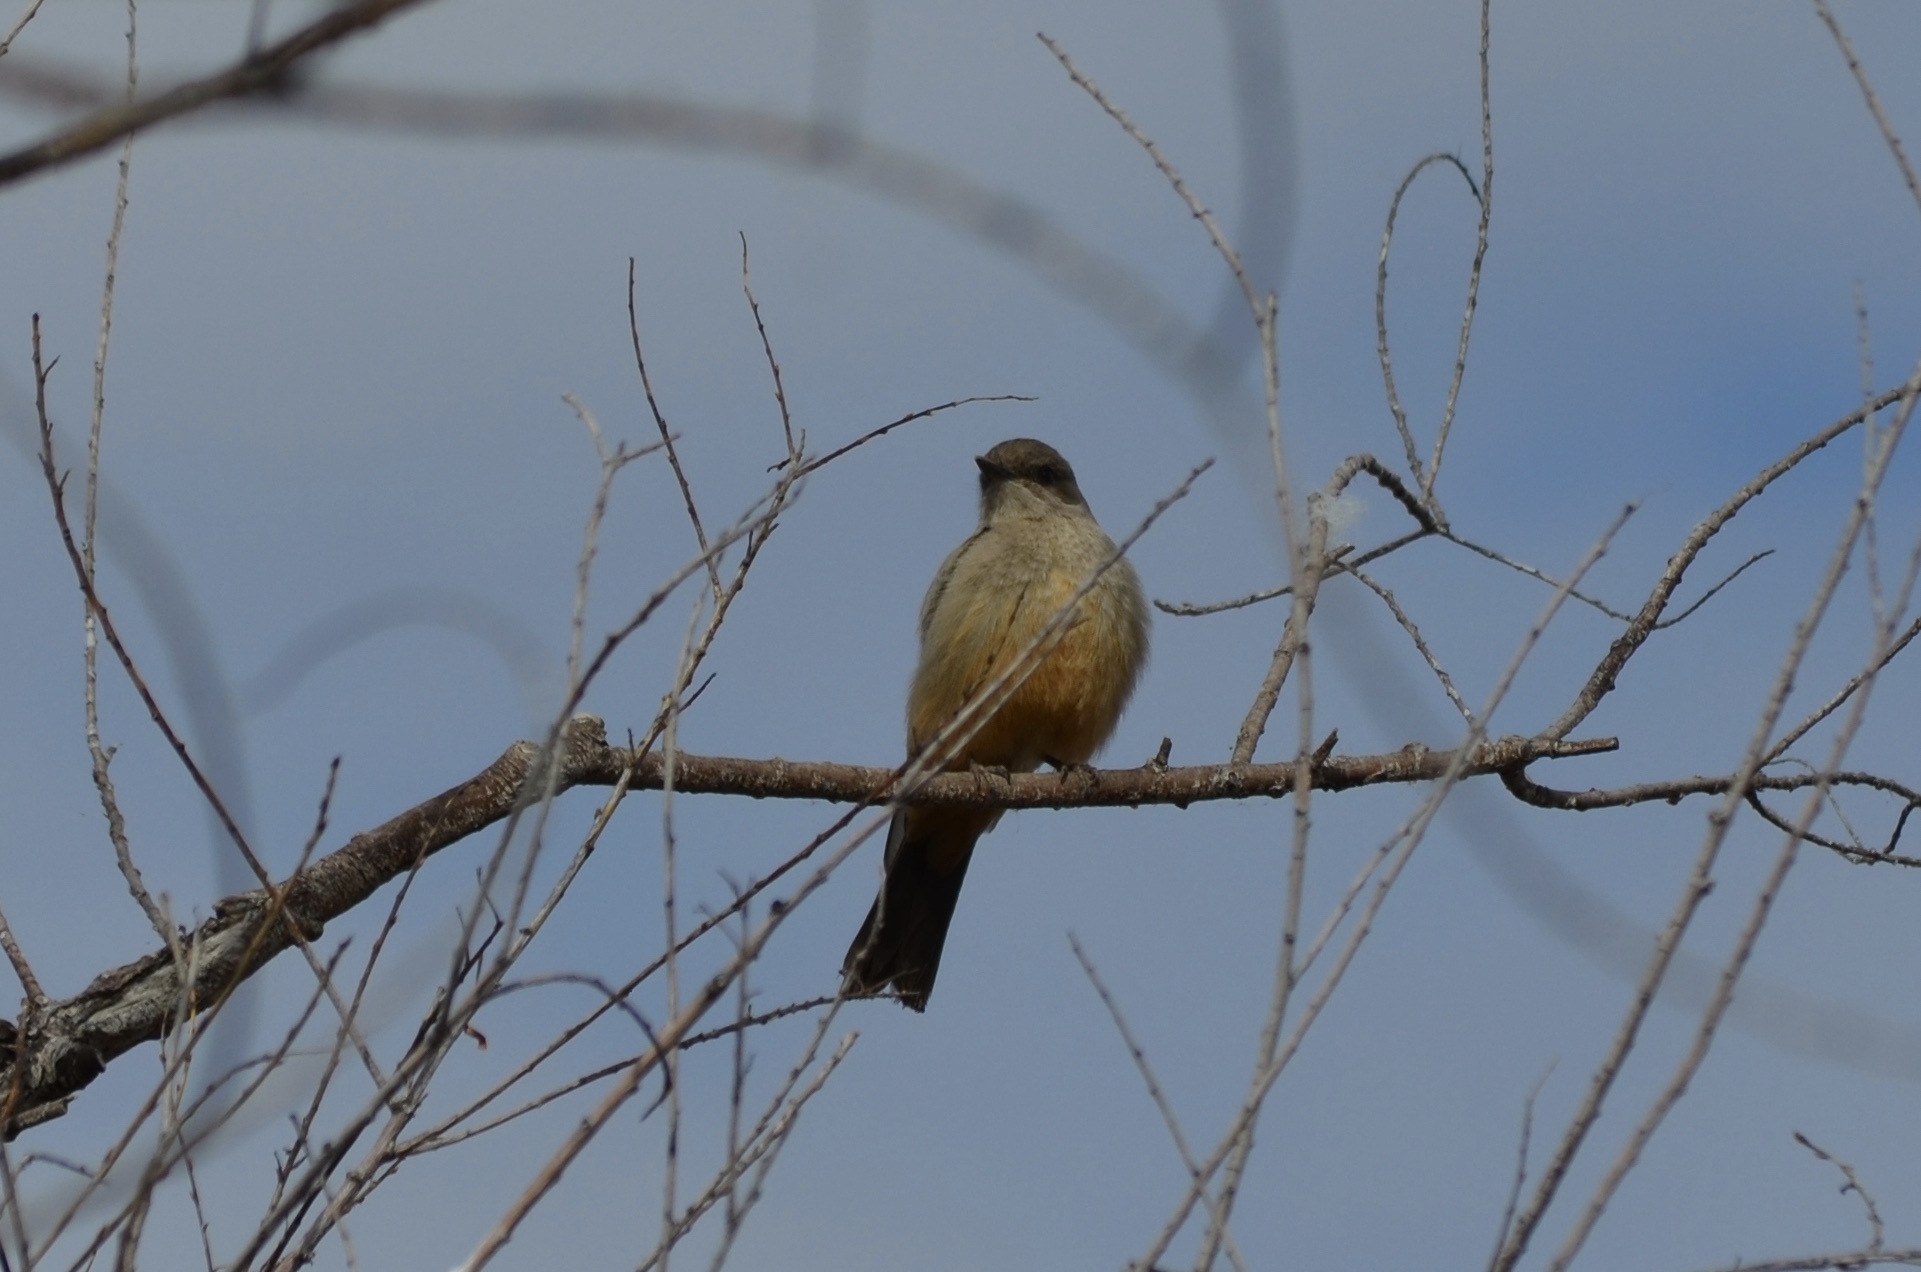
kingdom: Animalia
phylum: Chordata
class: Aves
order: Passeriformes
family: Tyrannidae
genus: Sayornis
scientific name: Sayornis saya
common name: Say's phoebe
